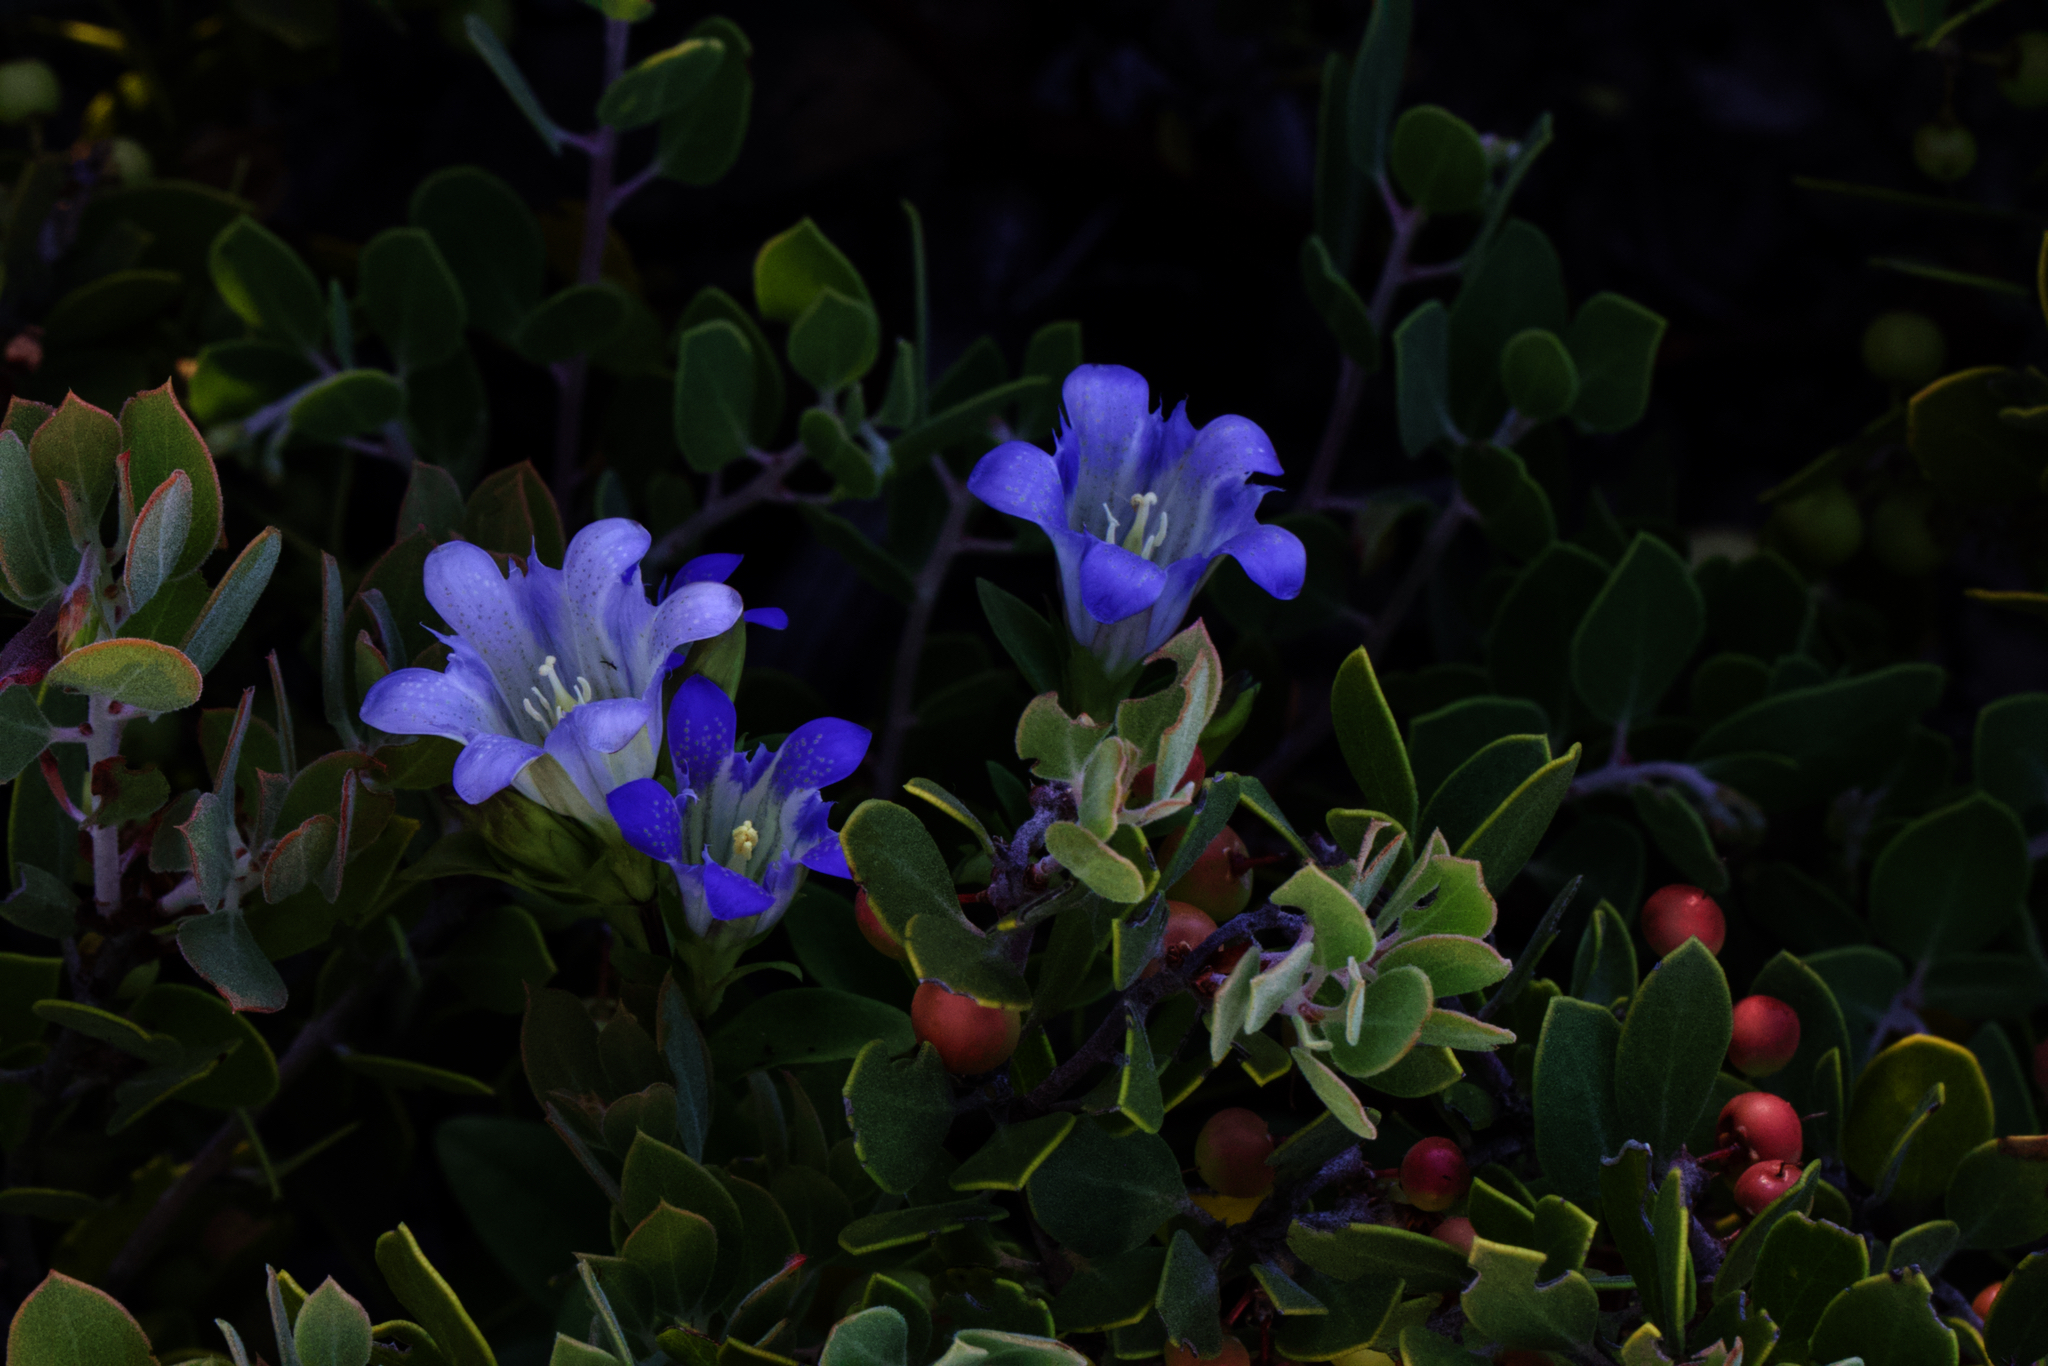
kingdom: Plantae
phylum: Tracheophyta
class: Magnoliopsida
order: Gentianales
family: Gentianaceae
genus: Gentiana
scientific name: Gentiana affinis
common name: Rocky mountain gentian
